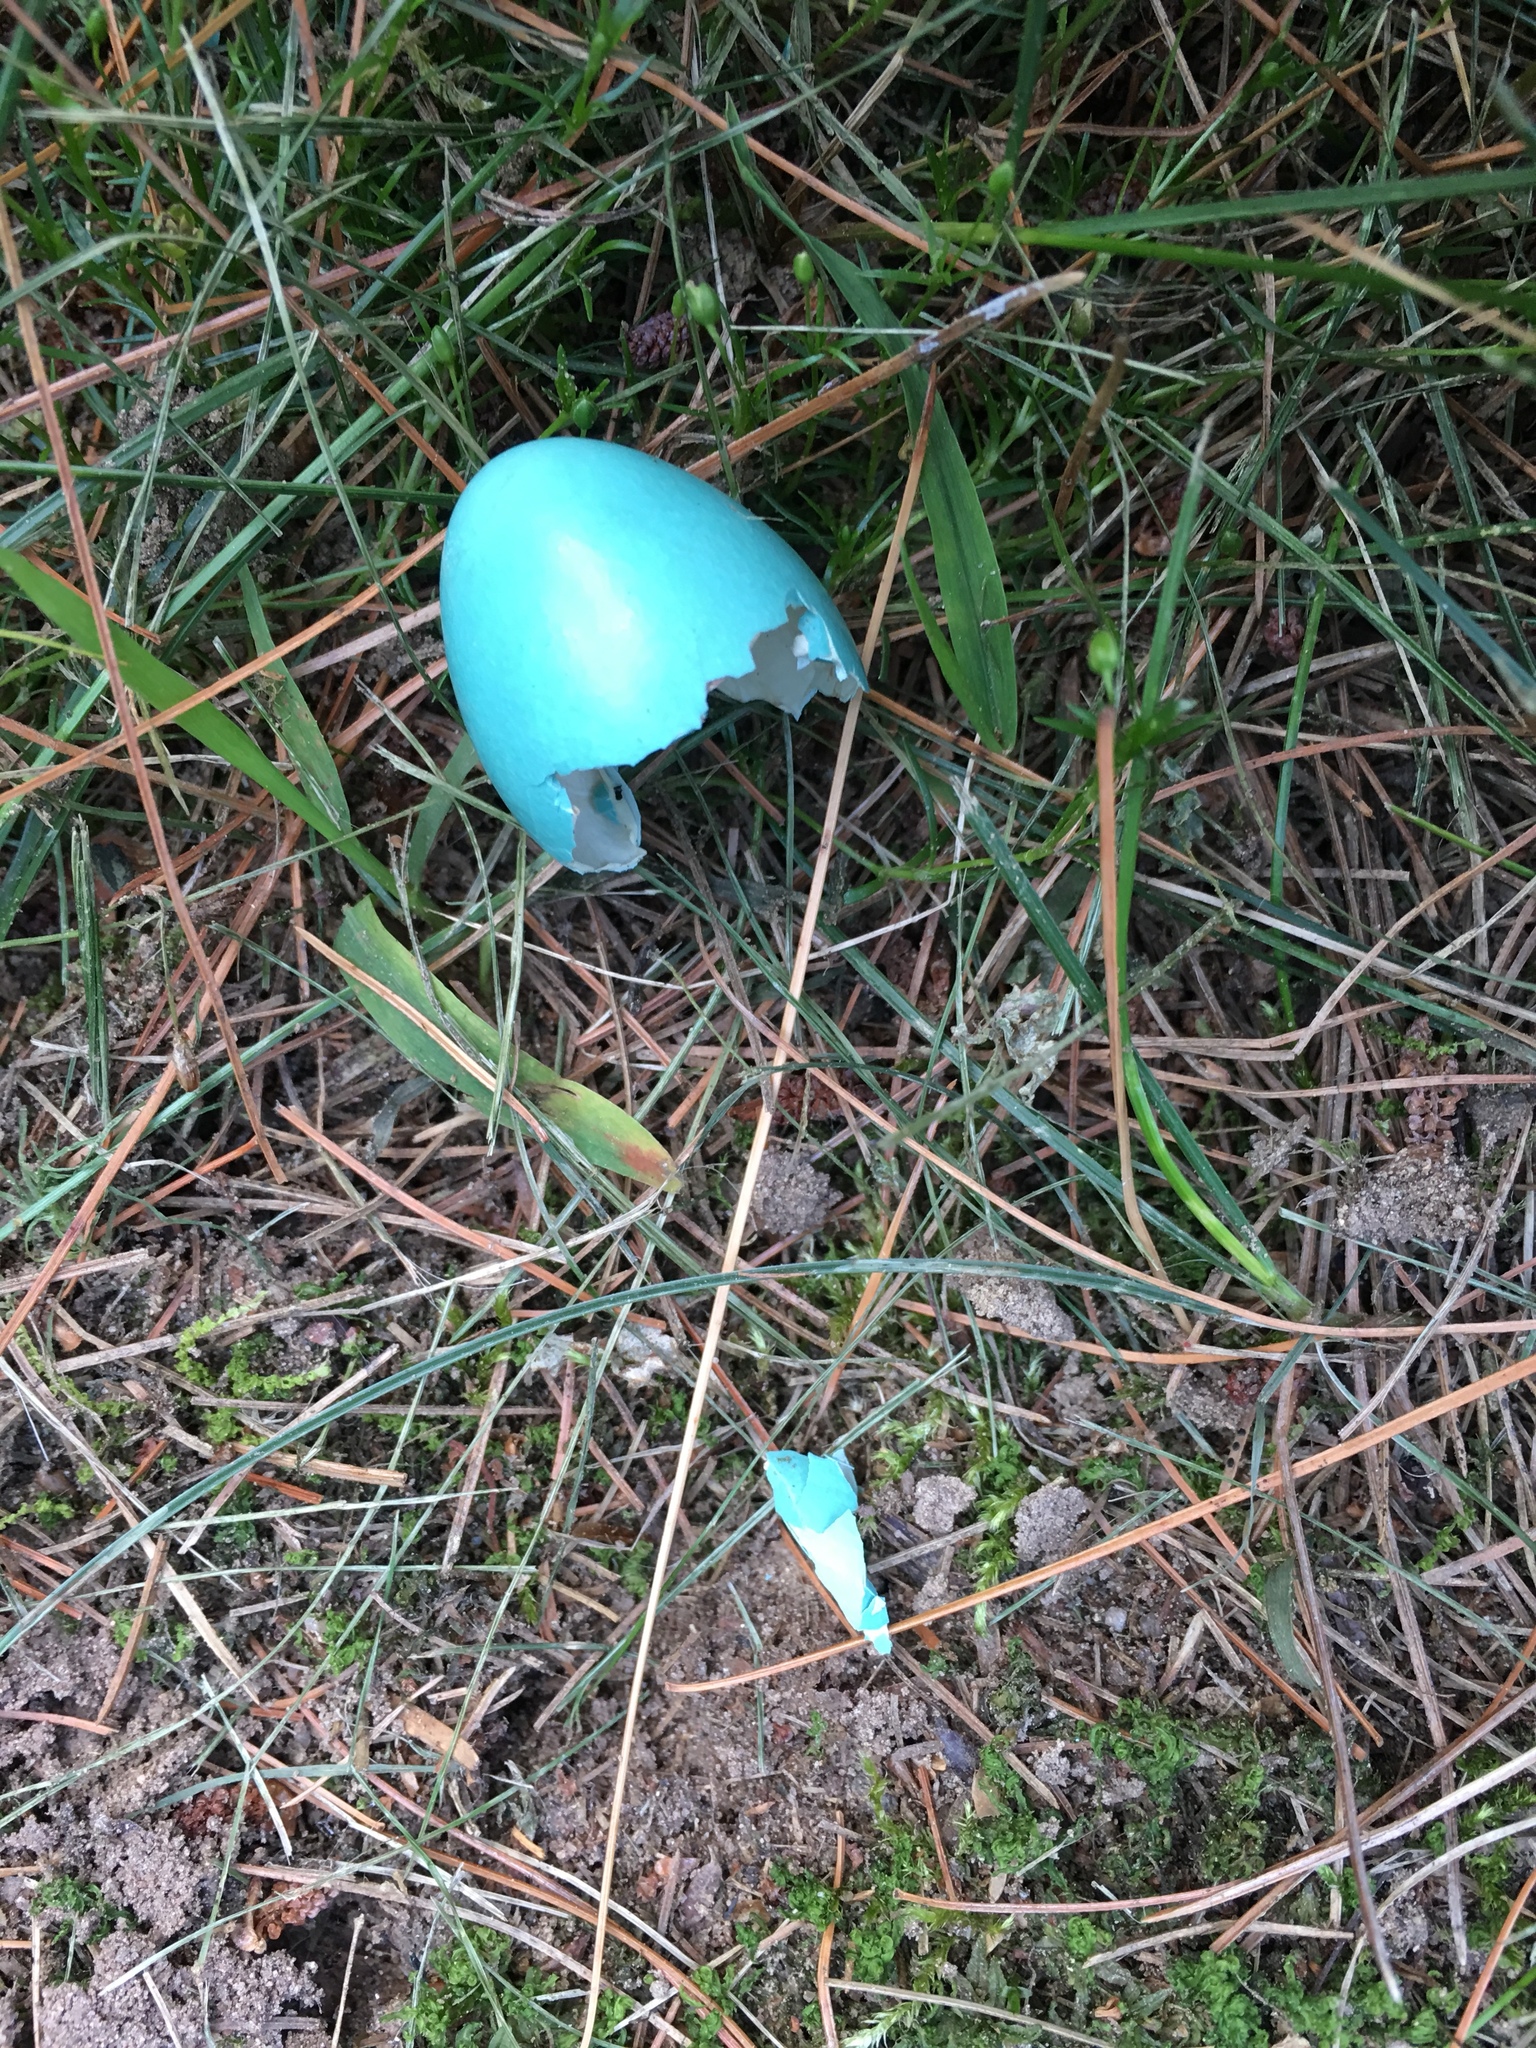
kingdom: Animalia
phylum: Chordata
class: Aves
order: Passeriformes
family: Turdidae
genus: Turdus
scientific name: Turdus migratorius
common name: American robin
